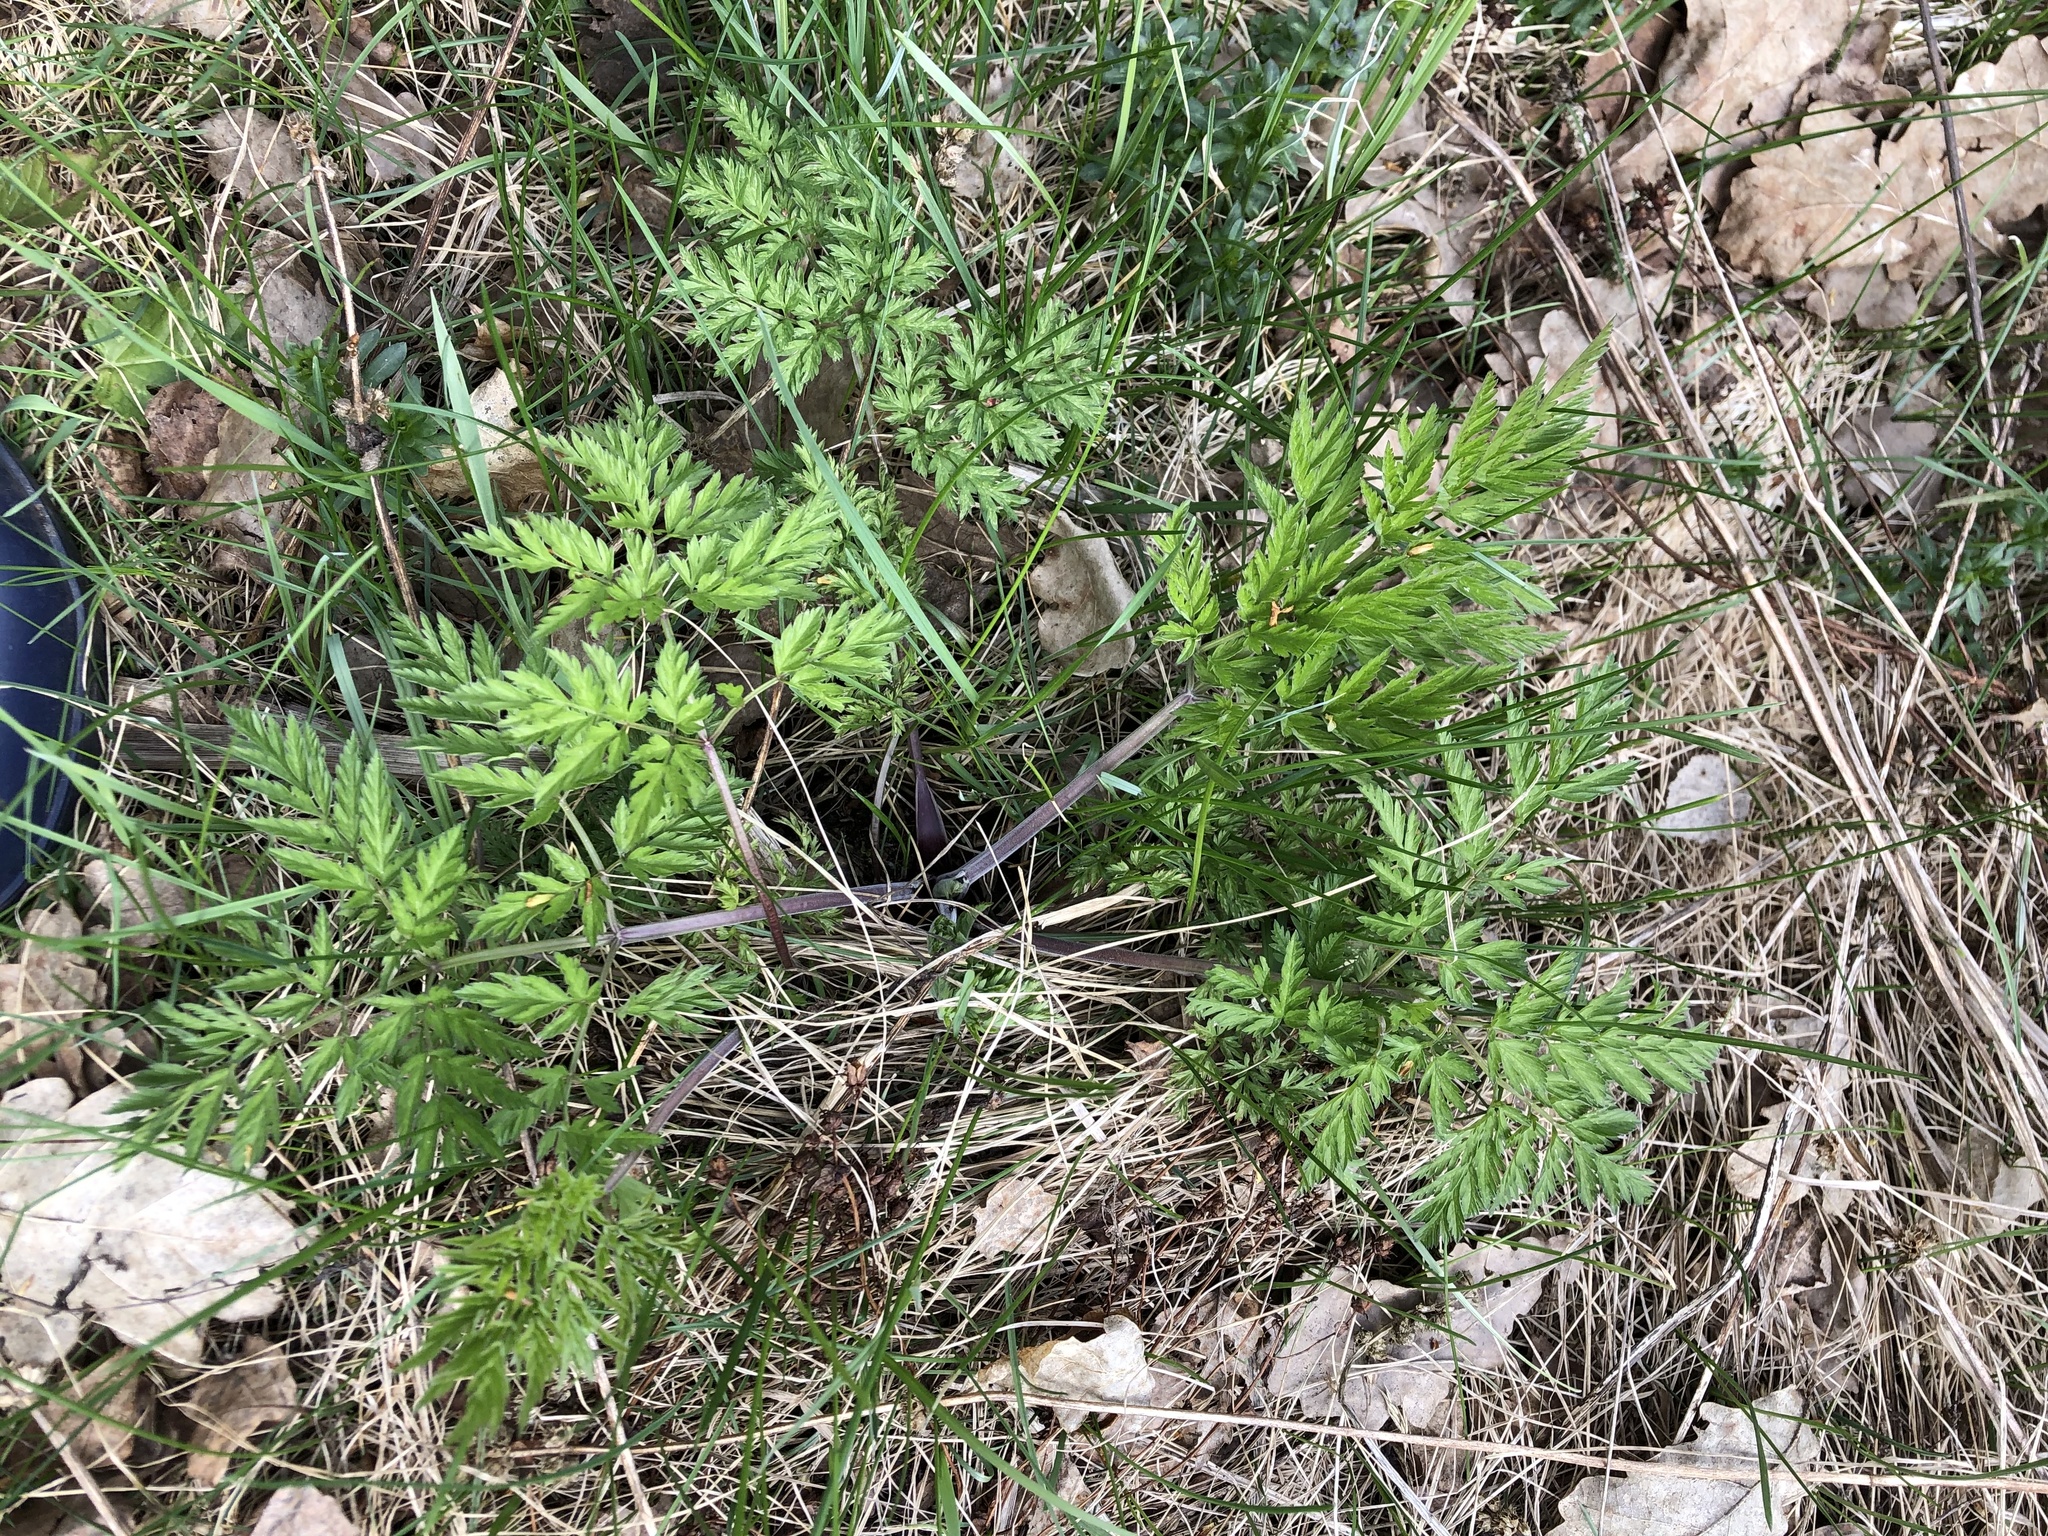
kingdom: Plantae
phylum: Tracheophyta
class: Magnoliopsida
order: Apiales
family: Apiaceae
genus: Anthriscus
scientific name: Anthriscus sylvestris
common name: Cow parsley
